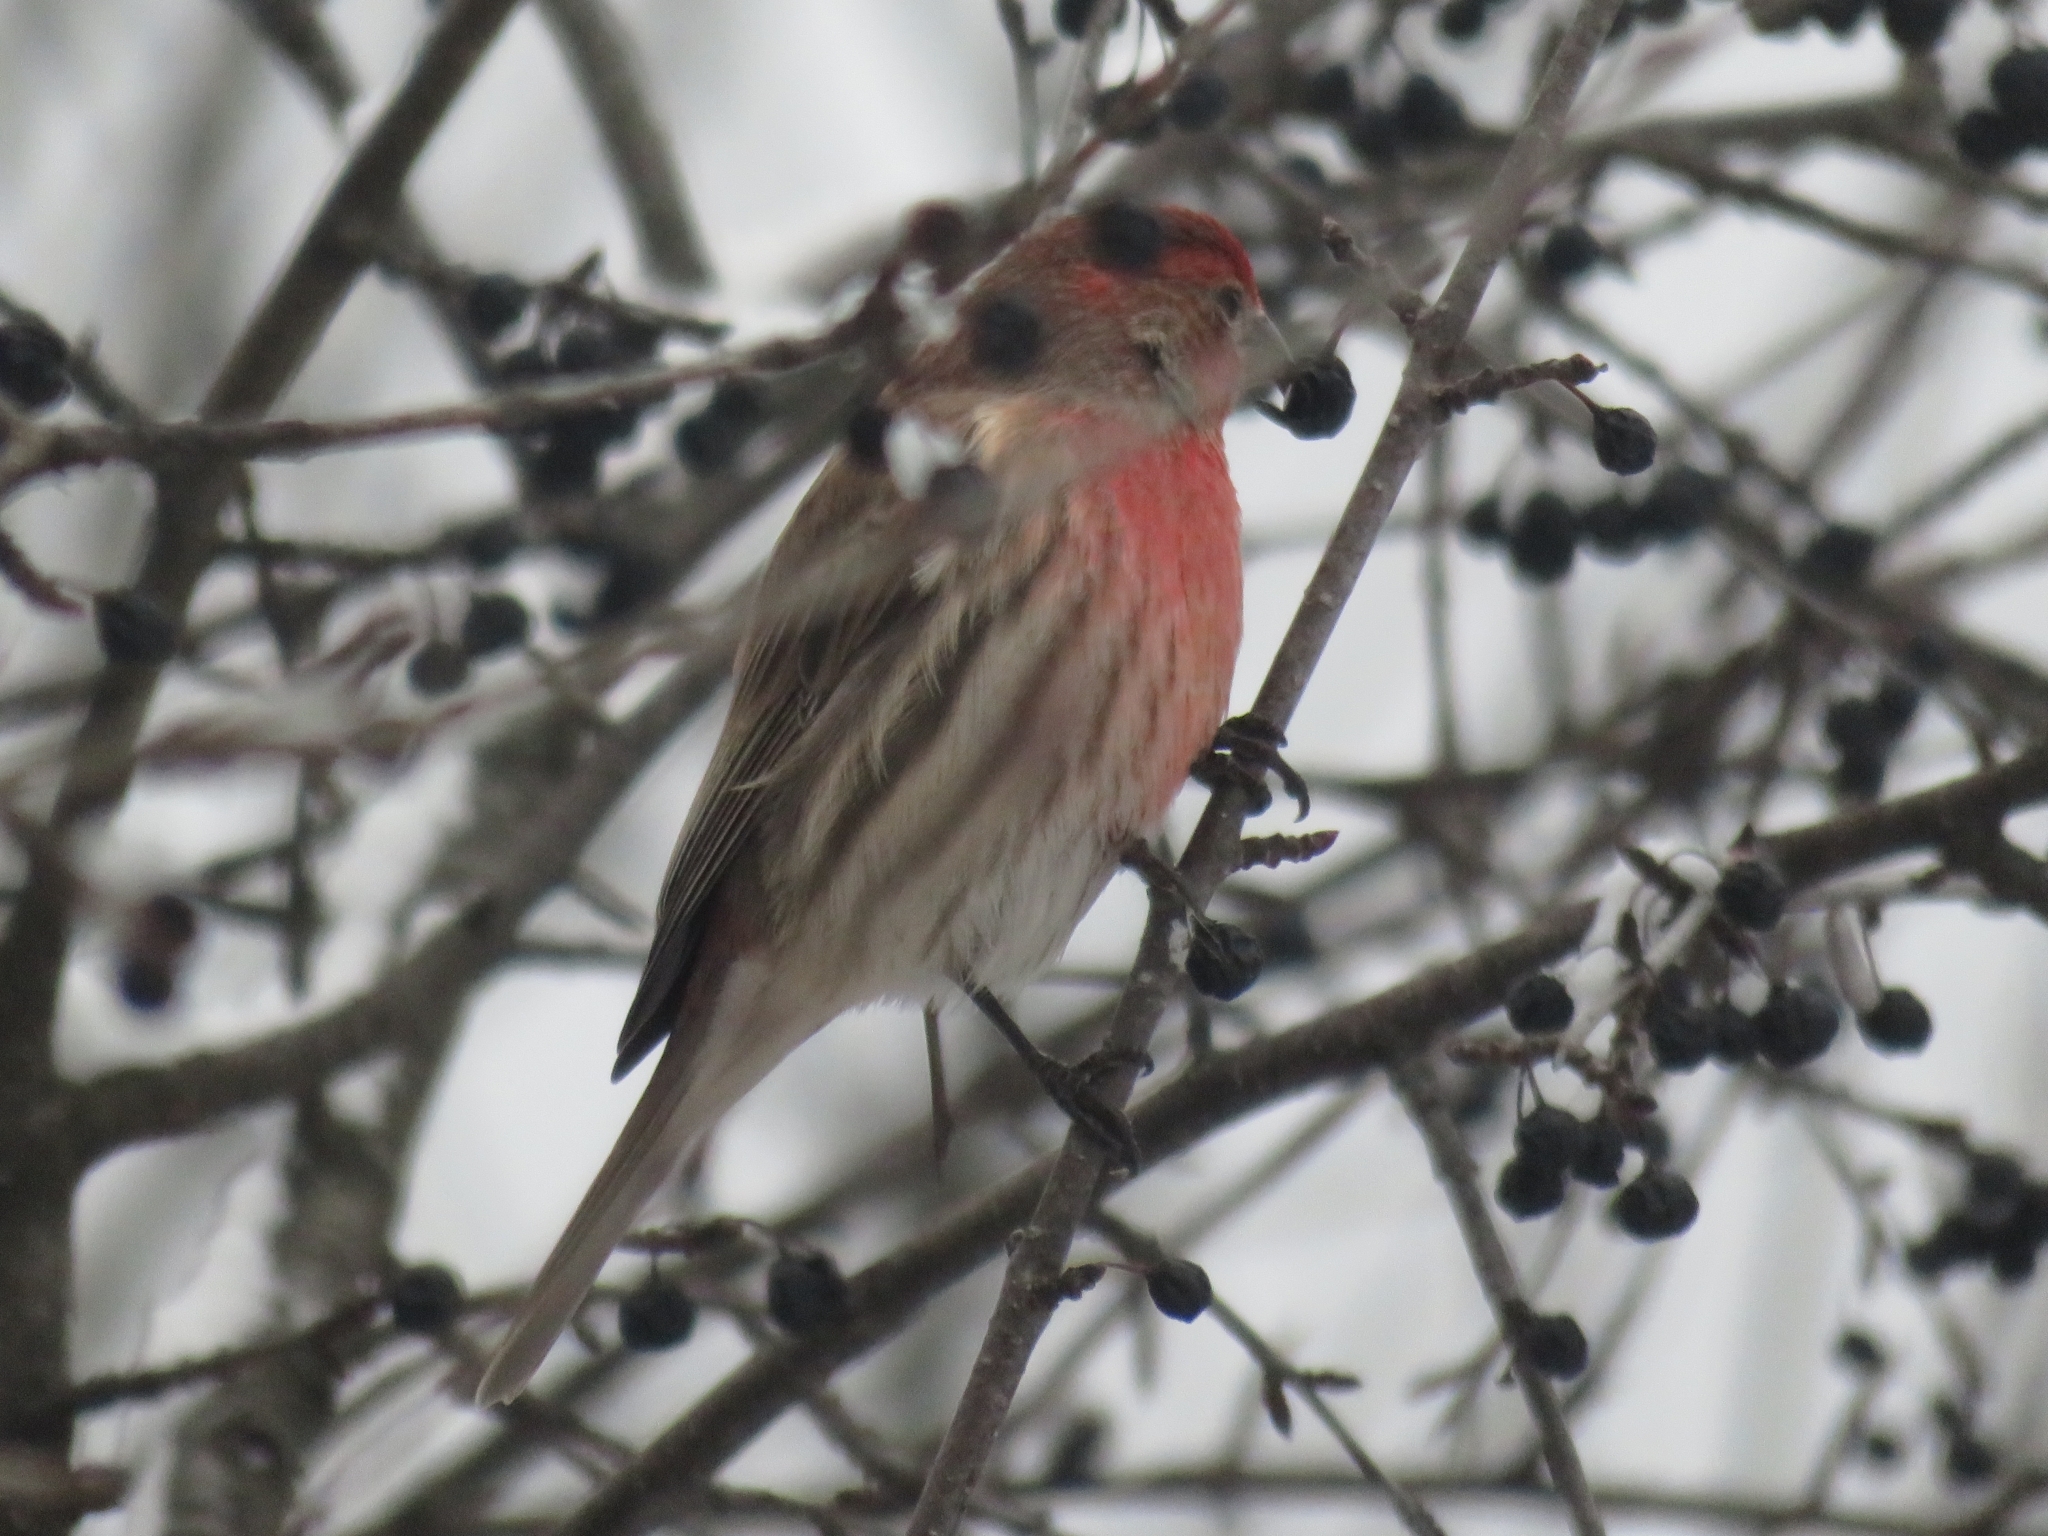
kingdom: Animalia
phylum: Chordata
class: Aves
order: Passeriformes
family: Fringillidae
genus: Haemorhous
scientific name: Haemorhous mexicanus
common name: House finch
